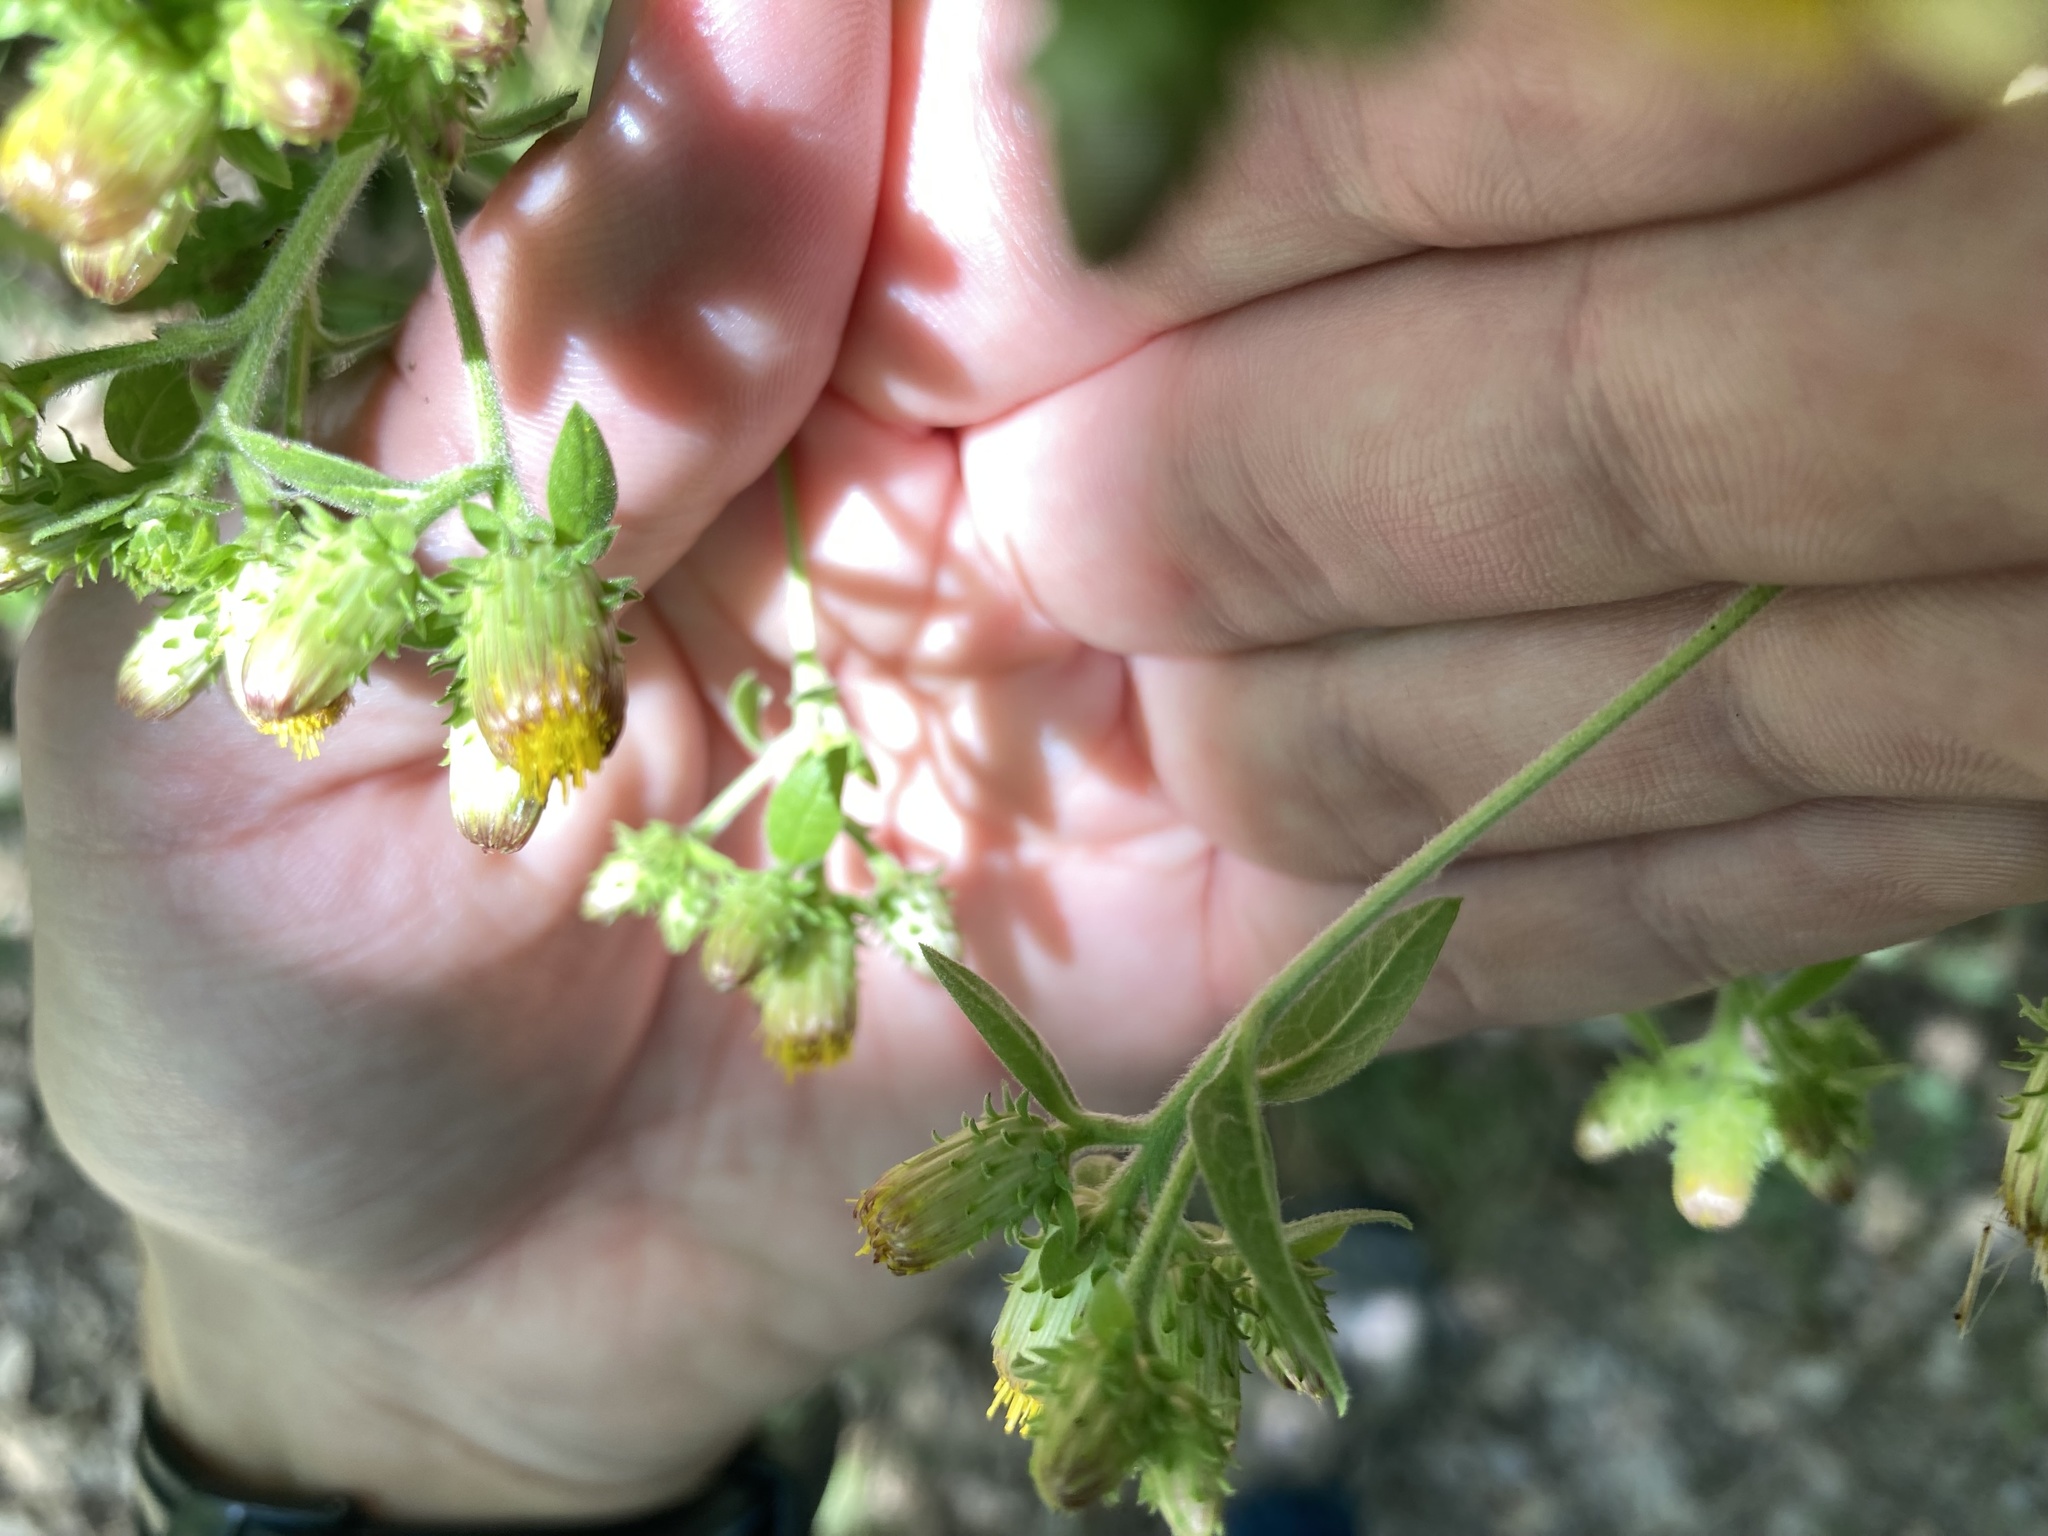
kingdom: Plantae
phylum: Tracheophyta
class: Magnoliopsida
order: Asterales
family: Asteraceae
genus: Pentanema
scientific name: Pentanema squarrosum
